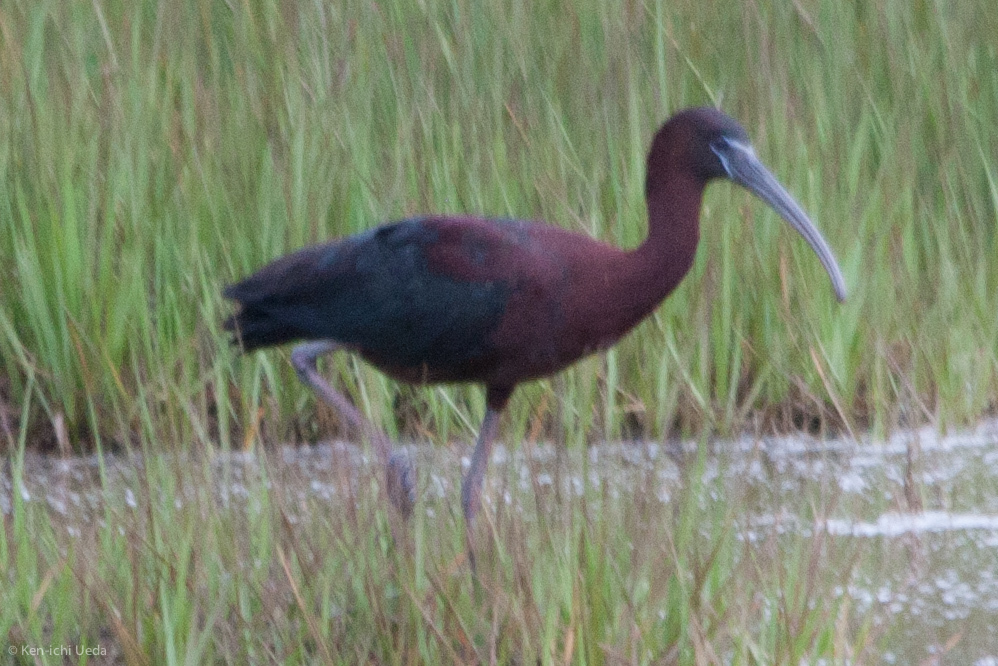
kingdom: Animalia
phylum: Chordata
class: Aves
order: Pelecaniformes
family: Threskiornithidae
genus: Plegadis
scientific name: Plegadis falcinellus
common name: Glossy ibis
